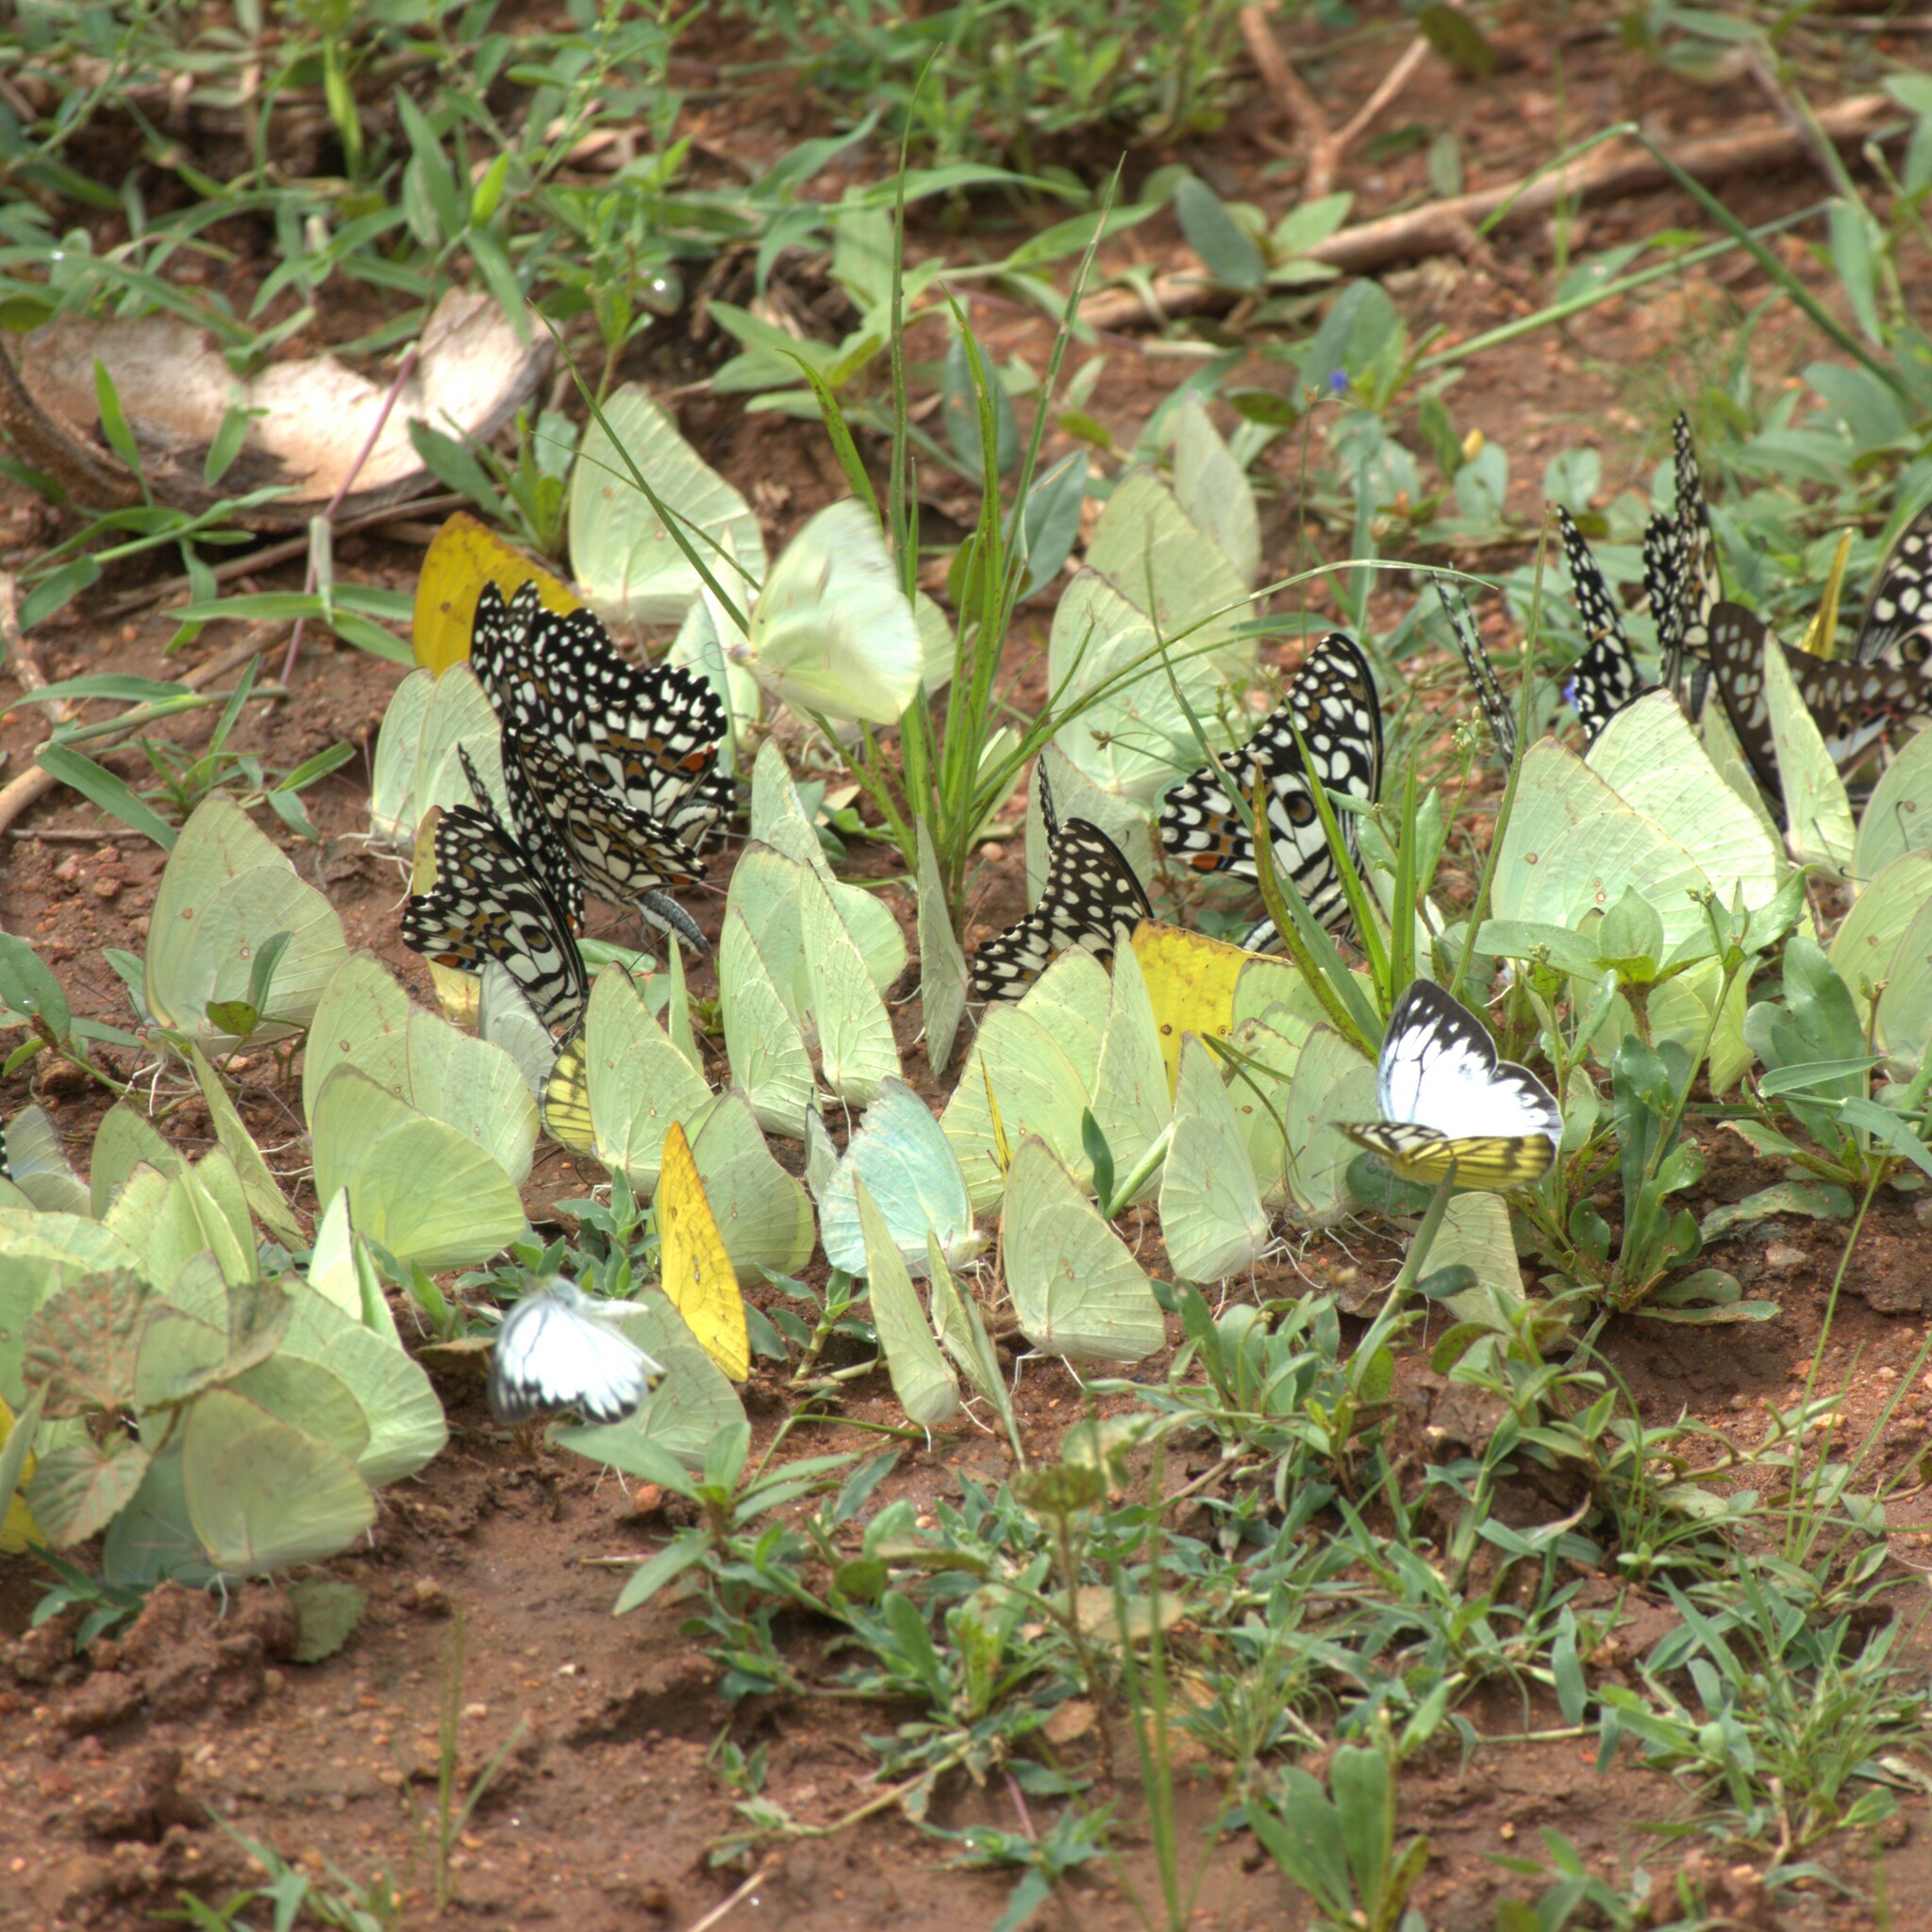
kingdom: Animalia
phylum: Arthropoda
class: Insecta
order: Lepidoptera
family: Papilionidae
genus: Papilio
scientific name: Papilio demoleus
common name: Lime butterfly
